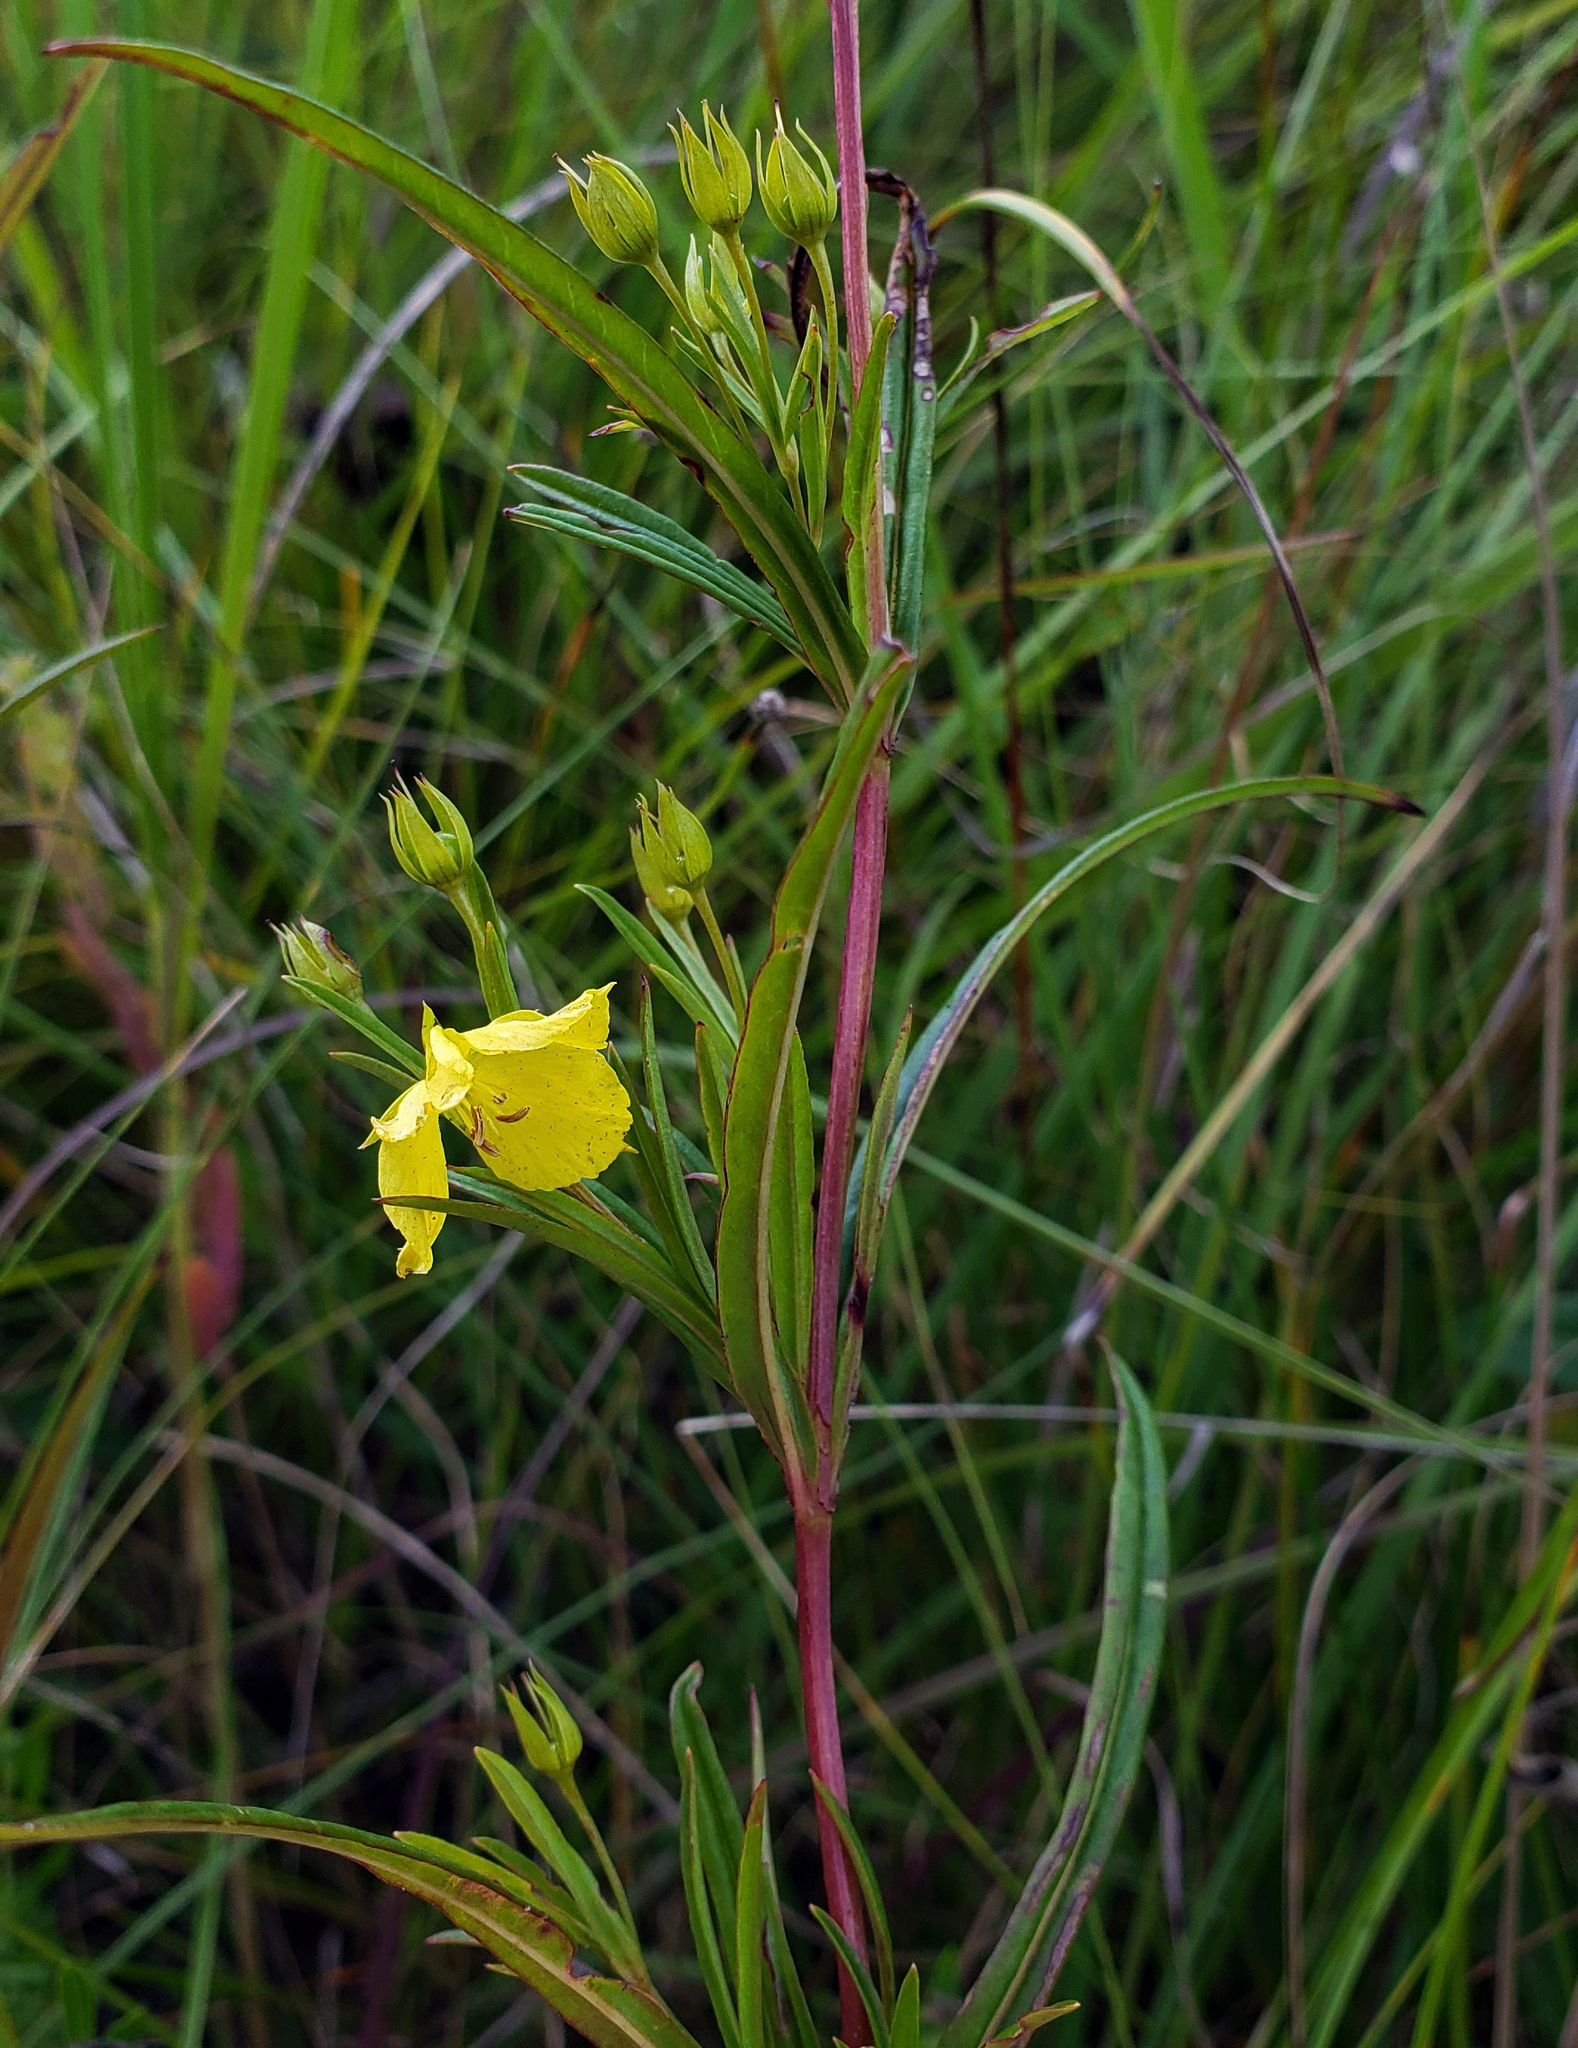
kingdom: Plantae
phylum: Tracheophyta
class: Magnoliopsida
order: Ericales
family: Primulaceae
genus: Lysimachia
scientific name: Lysimachia quadriflora
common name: Four-flowered loosestrife
